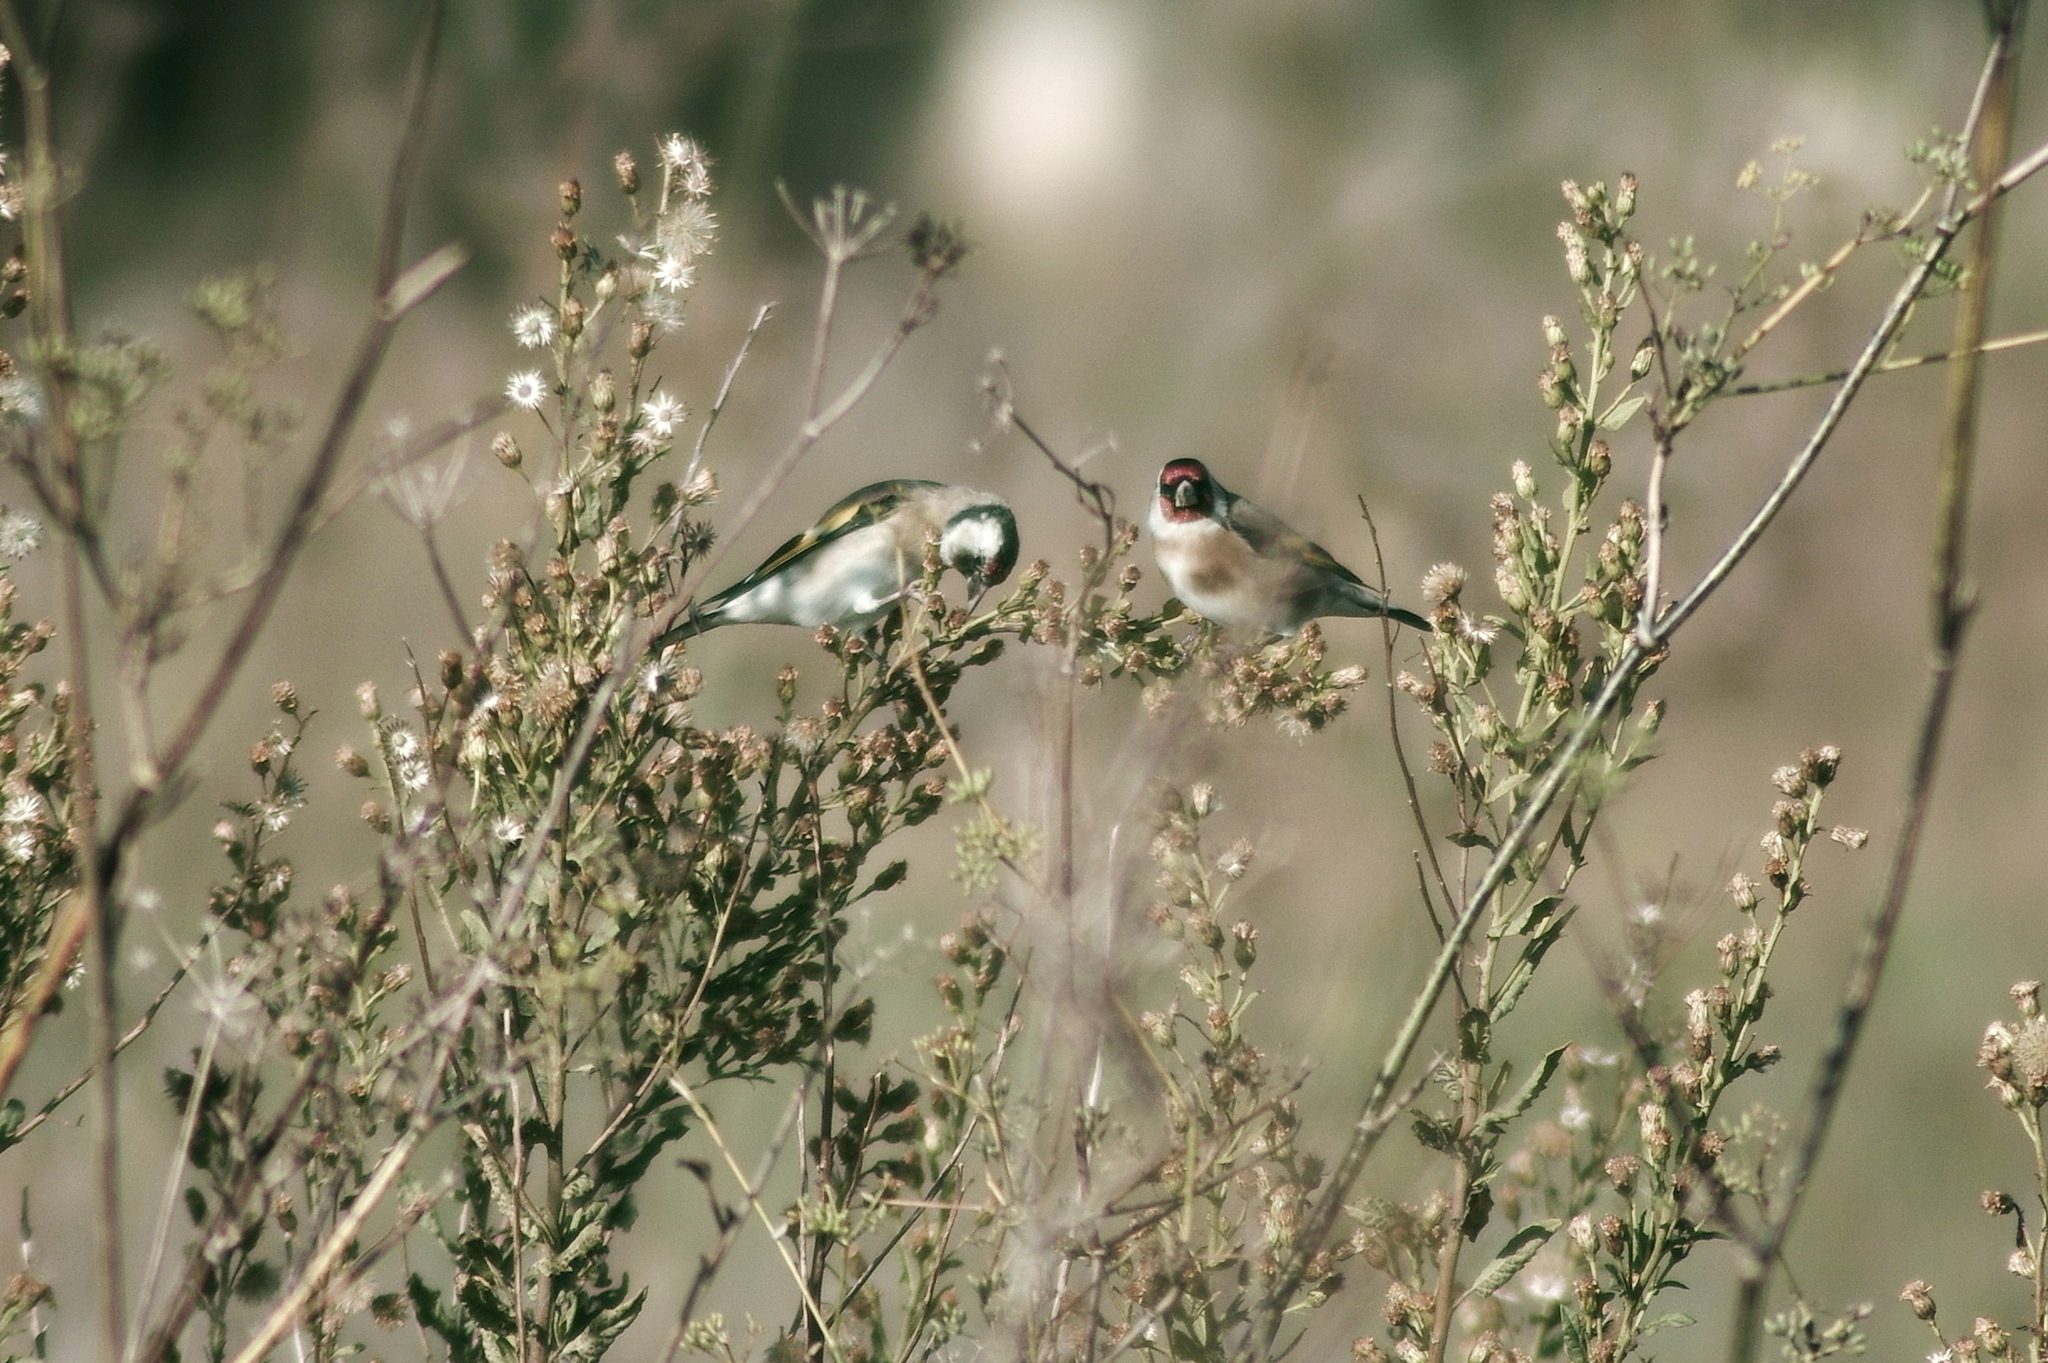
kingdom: Animalia
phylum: Chordata
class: Aves
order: Passeriformes
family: Fringillidae
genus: Carduelis
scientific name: Carduelis carduelis
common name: European goldfinch
